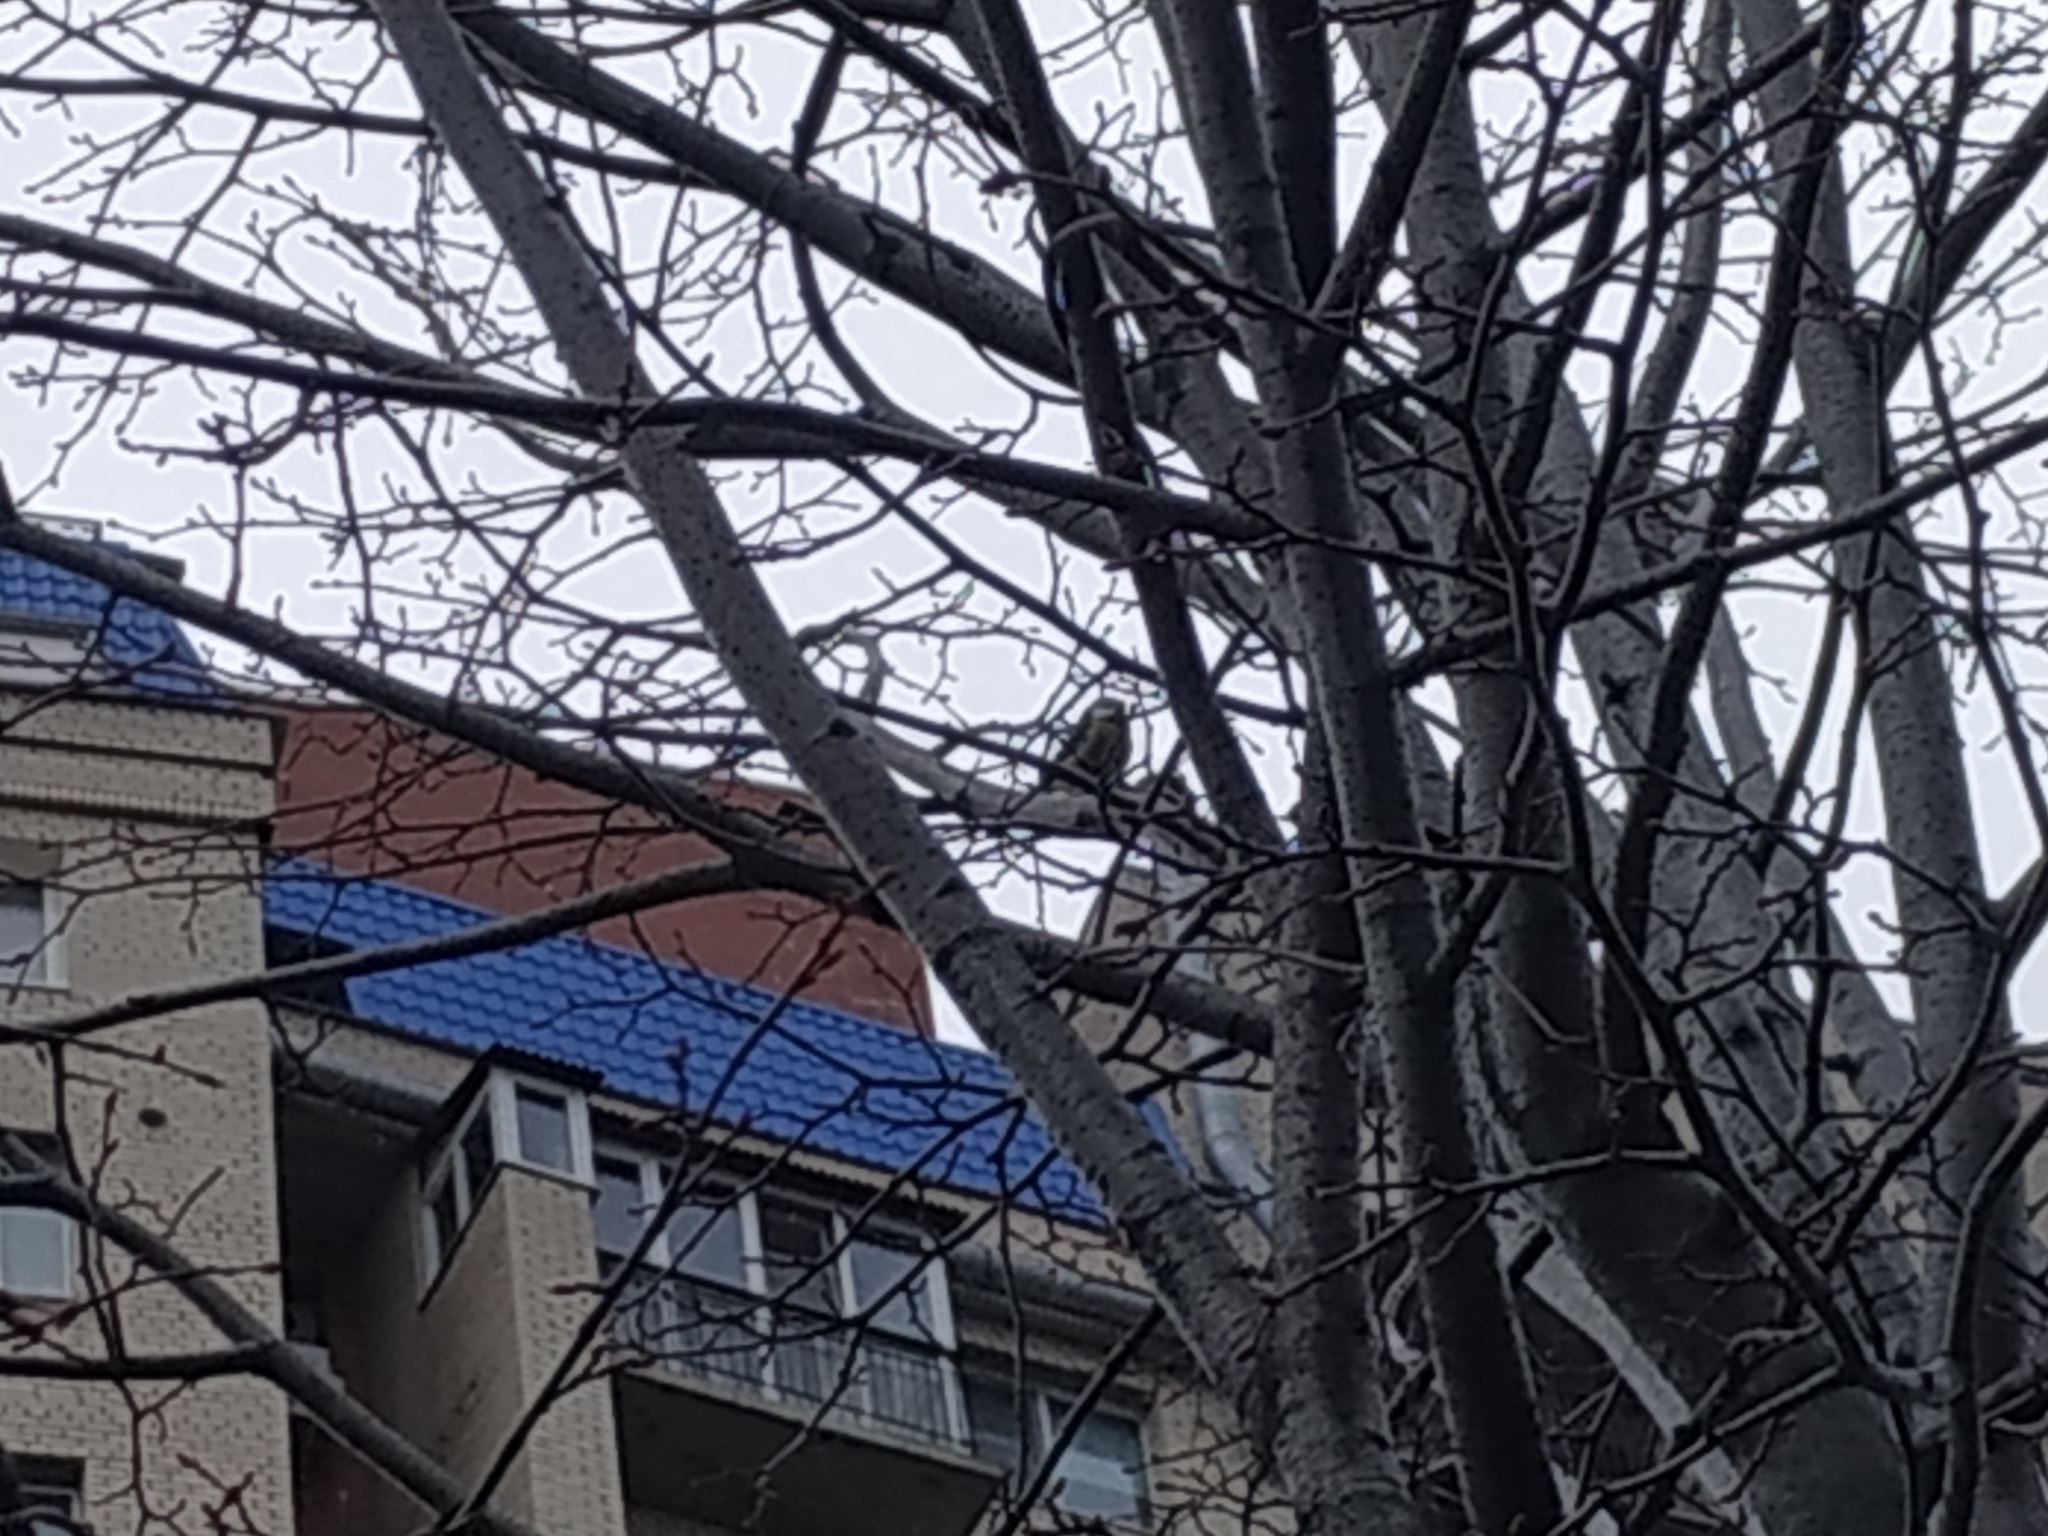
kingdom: Animalia
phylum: Chordata
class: Aves
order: Passeriformes
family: Paridae
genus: Cyanistes
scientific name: Cyanistes caeruleus
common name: Eurasian blue tit
